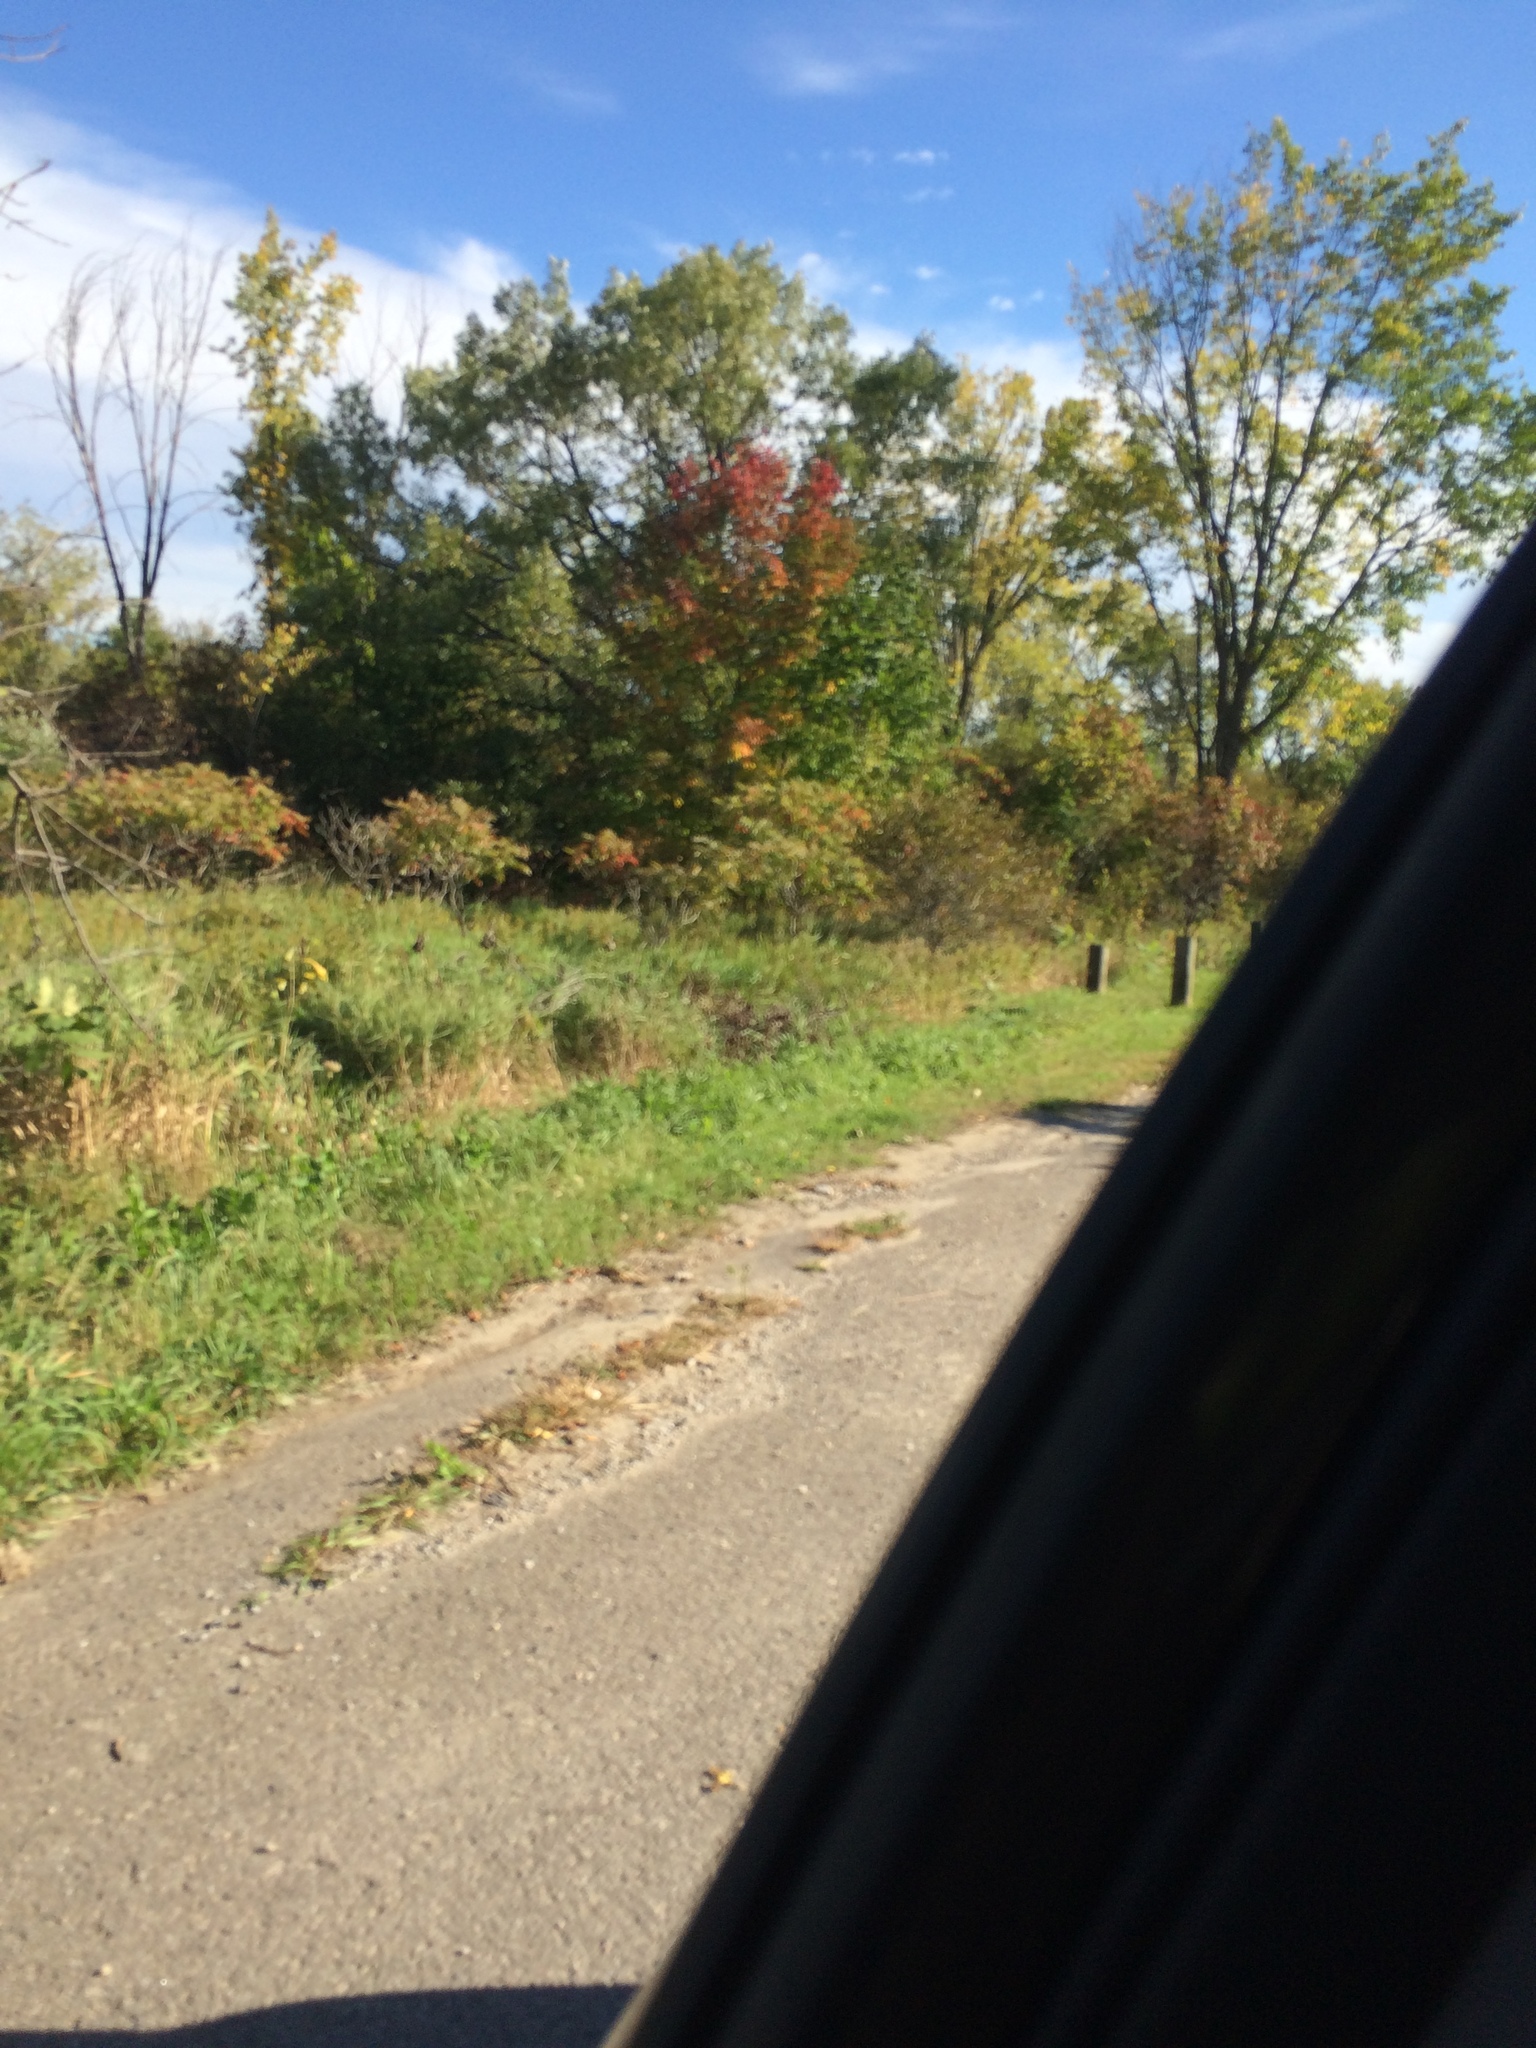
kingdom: Plantae
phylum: Tracheophyta
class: Magnoliopsida
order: Rosales
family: Rosaceae
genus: Crataegus
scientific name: Crataegus chrysocarpa
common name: Fire-berry hawthorn
